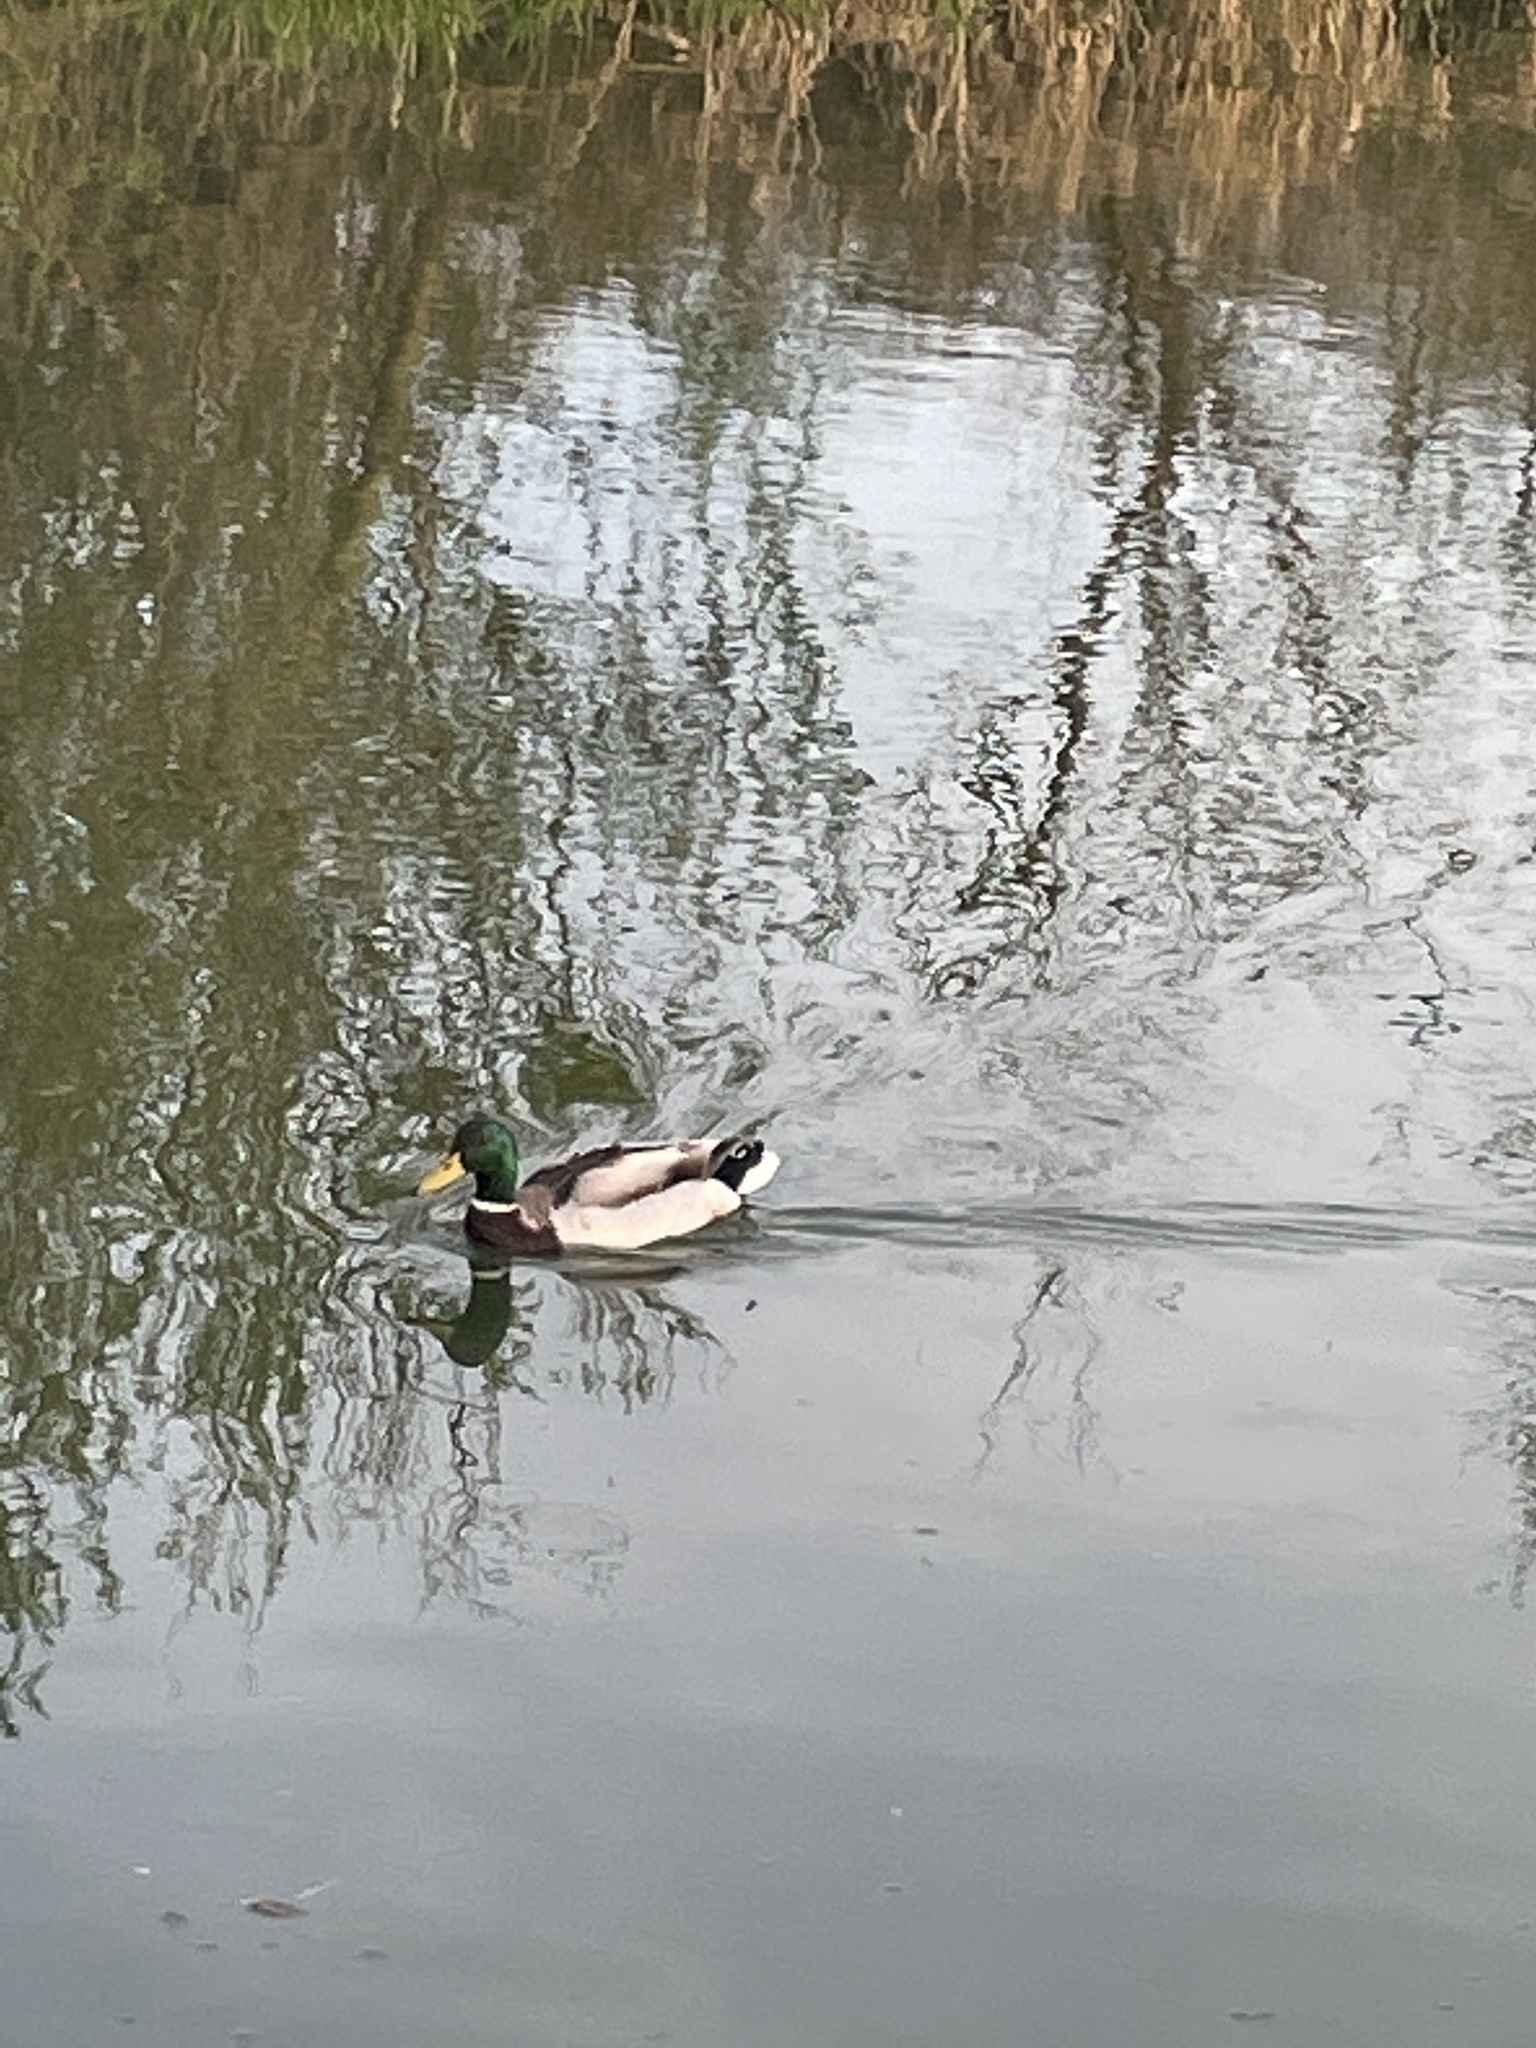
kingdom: Animalia
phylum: Chordata
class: Aves
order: Anseriformes
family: Anatidae
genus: Anas
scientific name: Anas platyrhynchos
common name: Mallard
